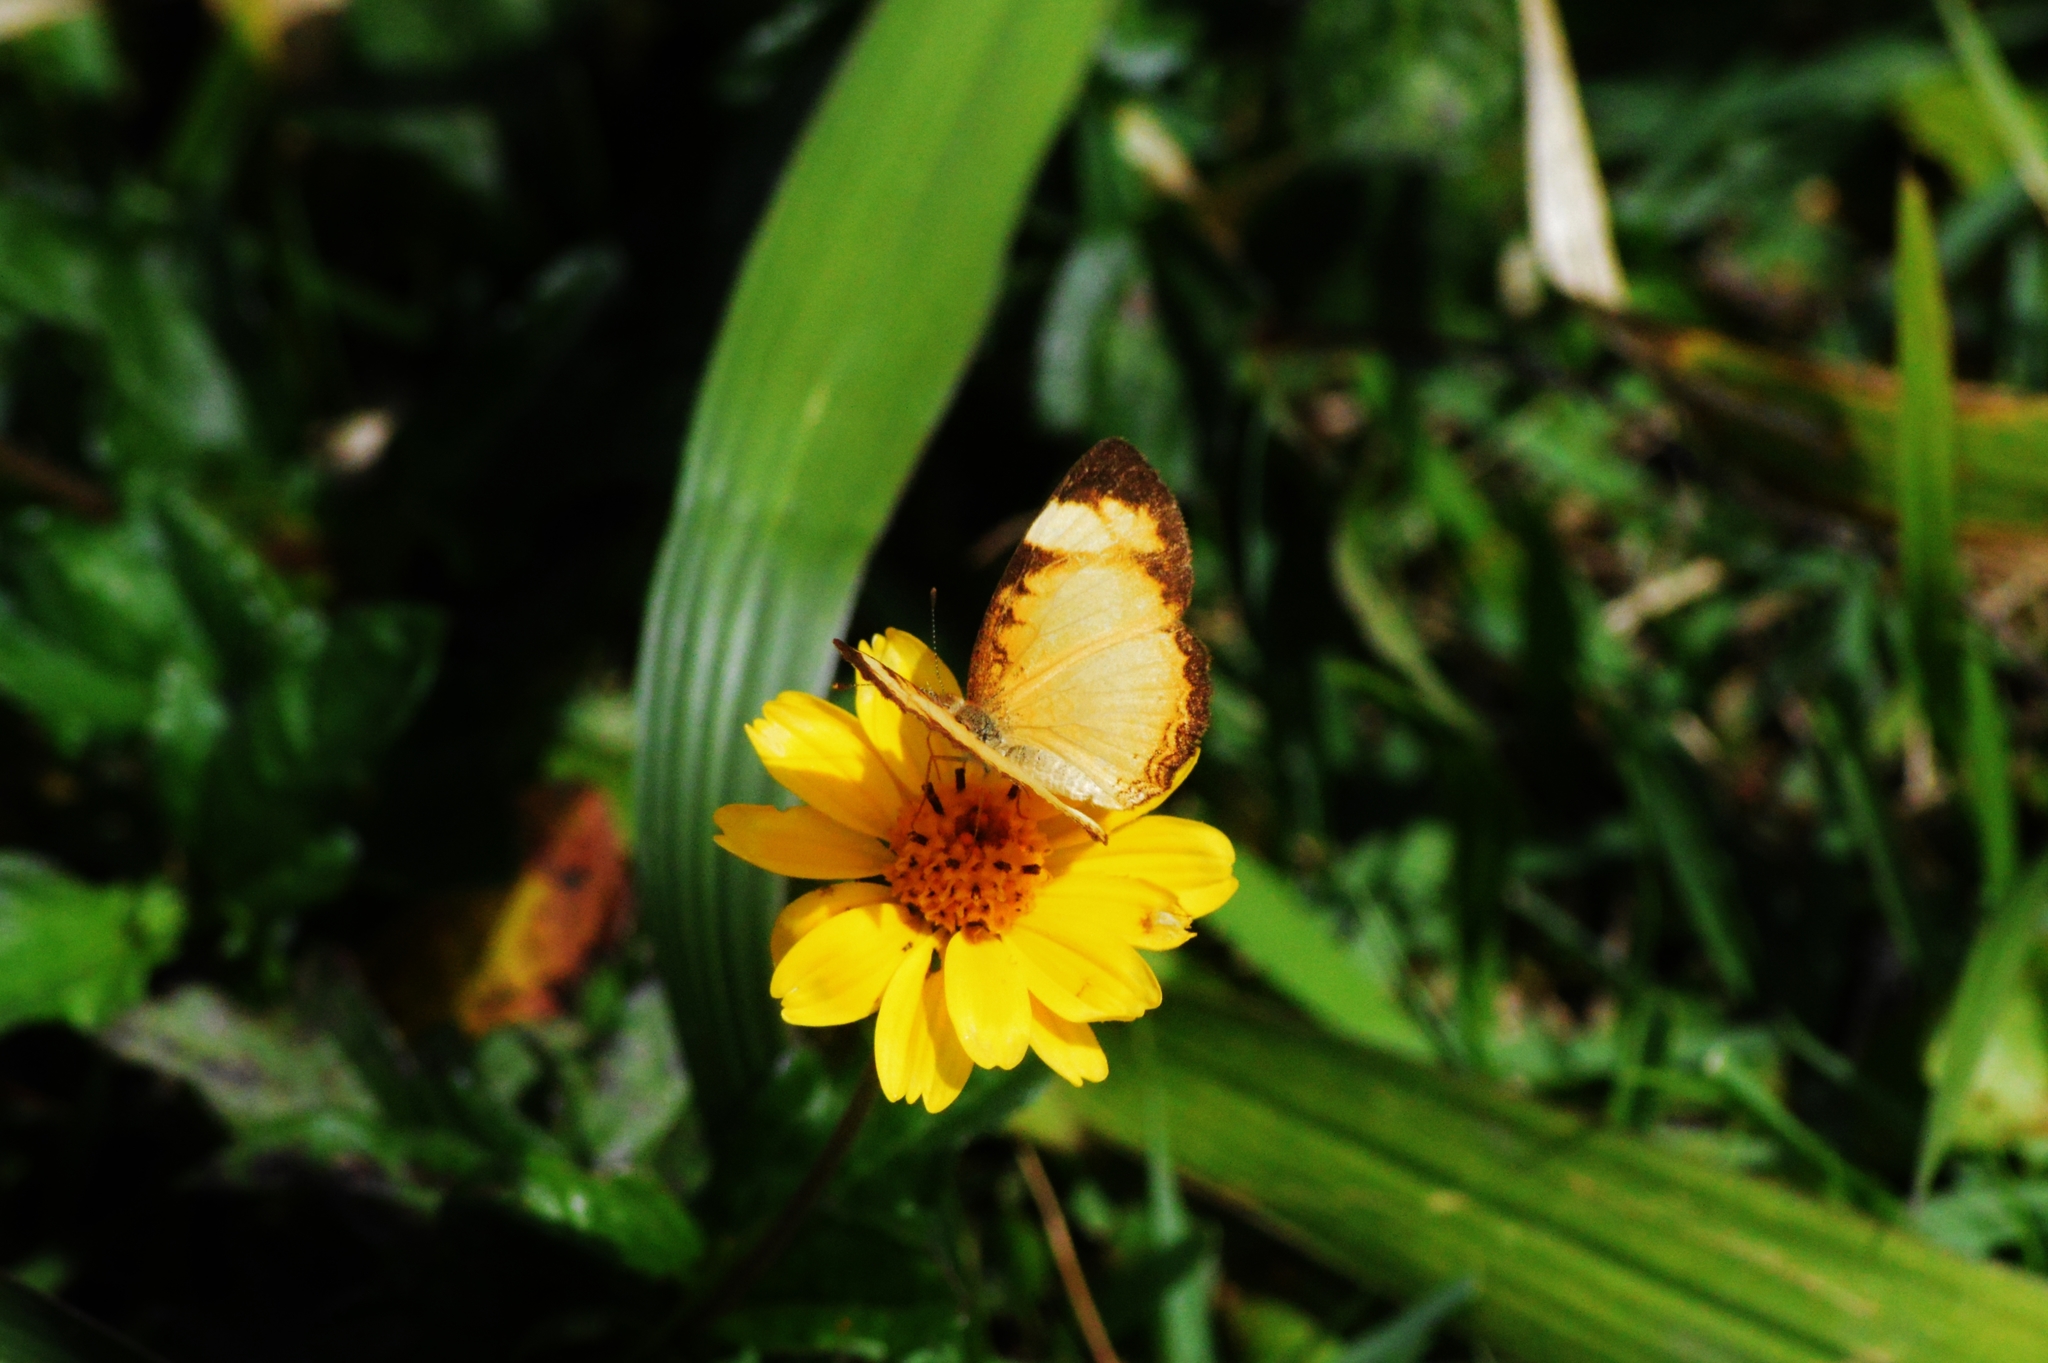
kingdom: Animalia
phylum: Arthropoda
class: Insecta
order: Lepidoptera
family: Nymphalidae
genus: Tegosa
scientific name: Tegosa claudina
